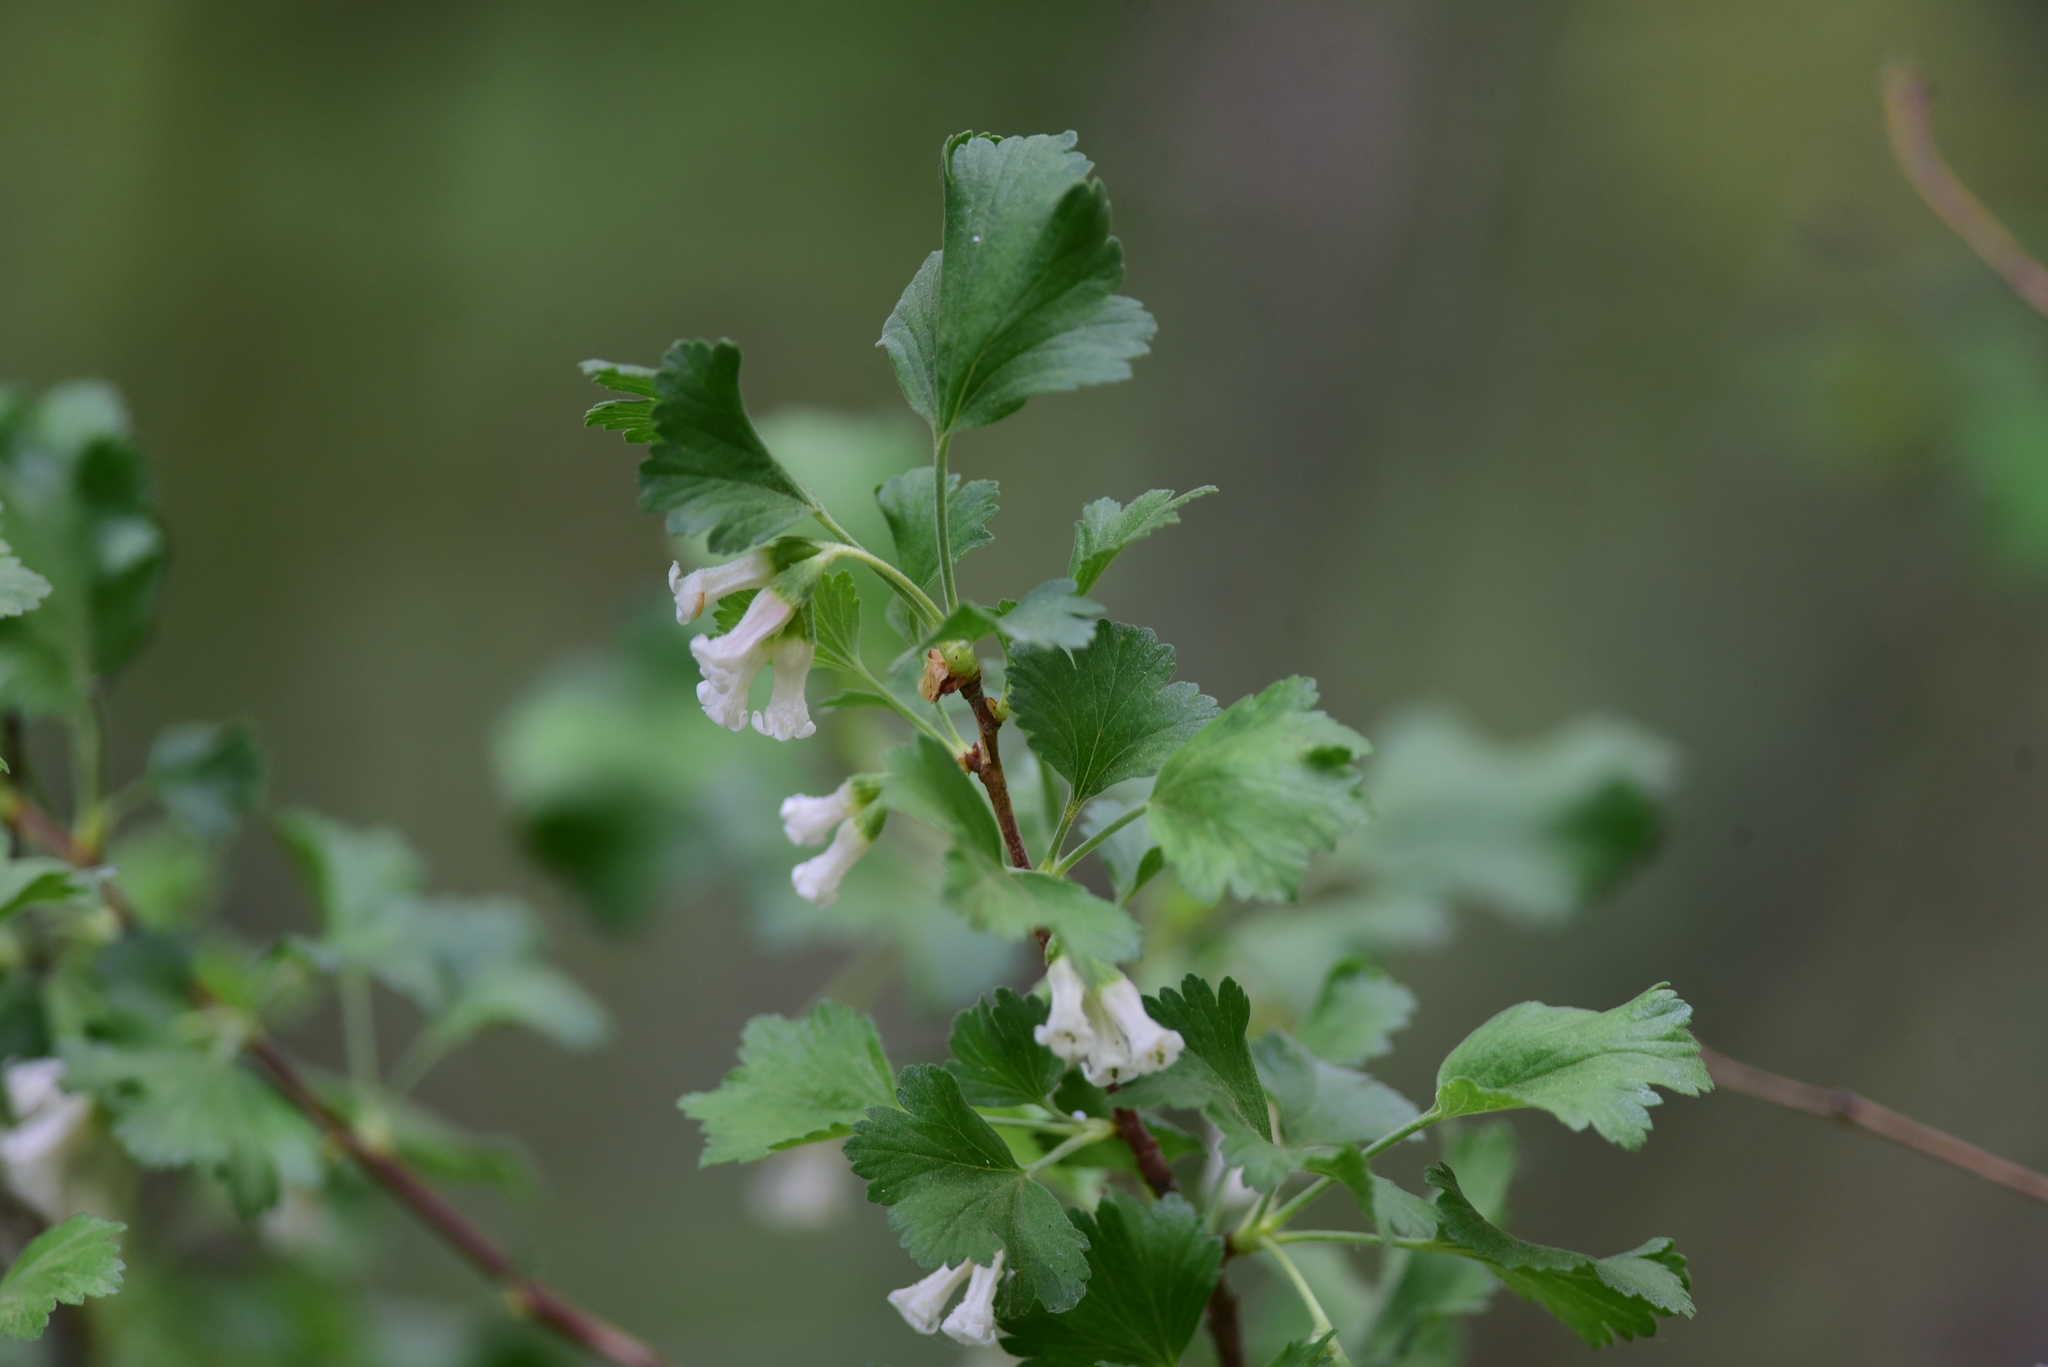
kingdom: Plantae
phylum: Tracheophyta
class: Magnoliopsida
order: Saxifragales
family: Grossulariaceae
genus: Ribes
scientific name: Ribes cereum
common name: Wax currant
